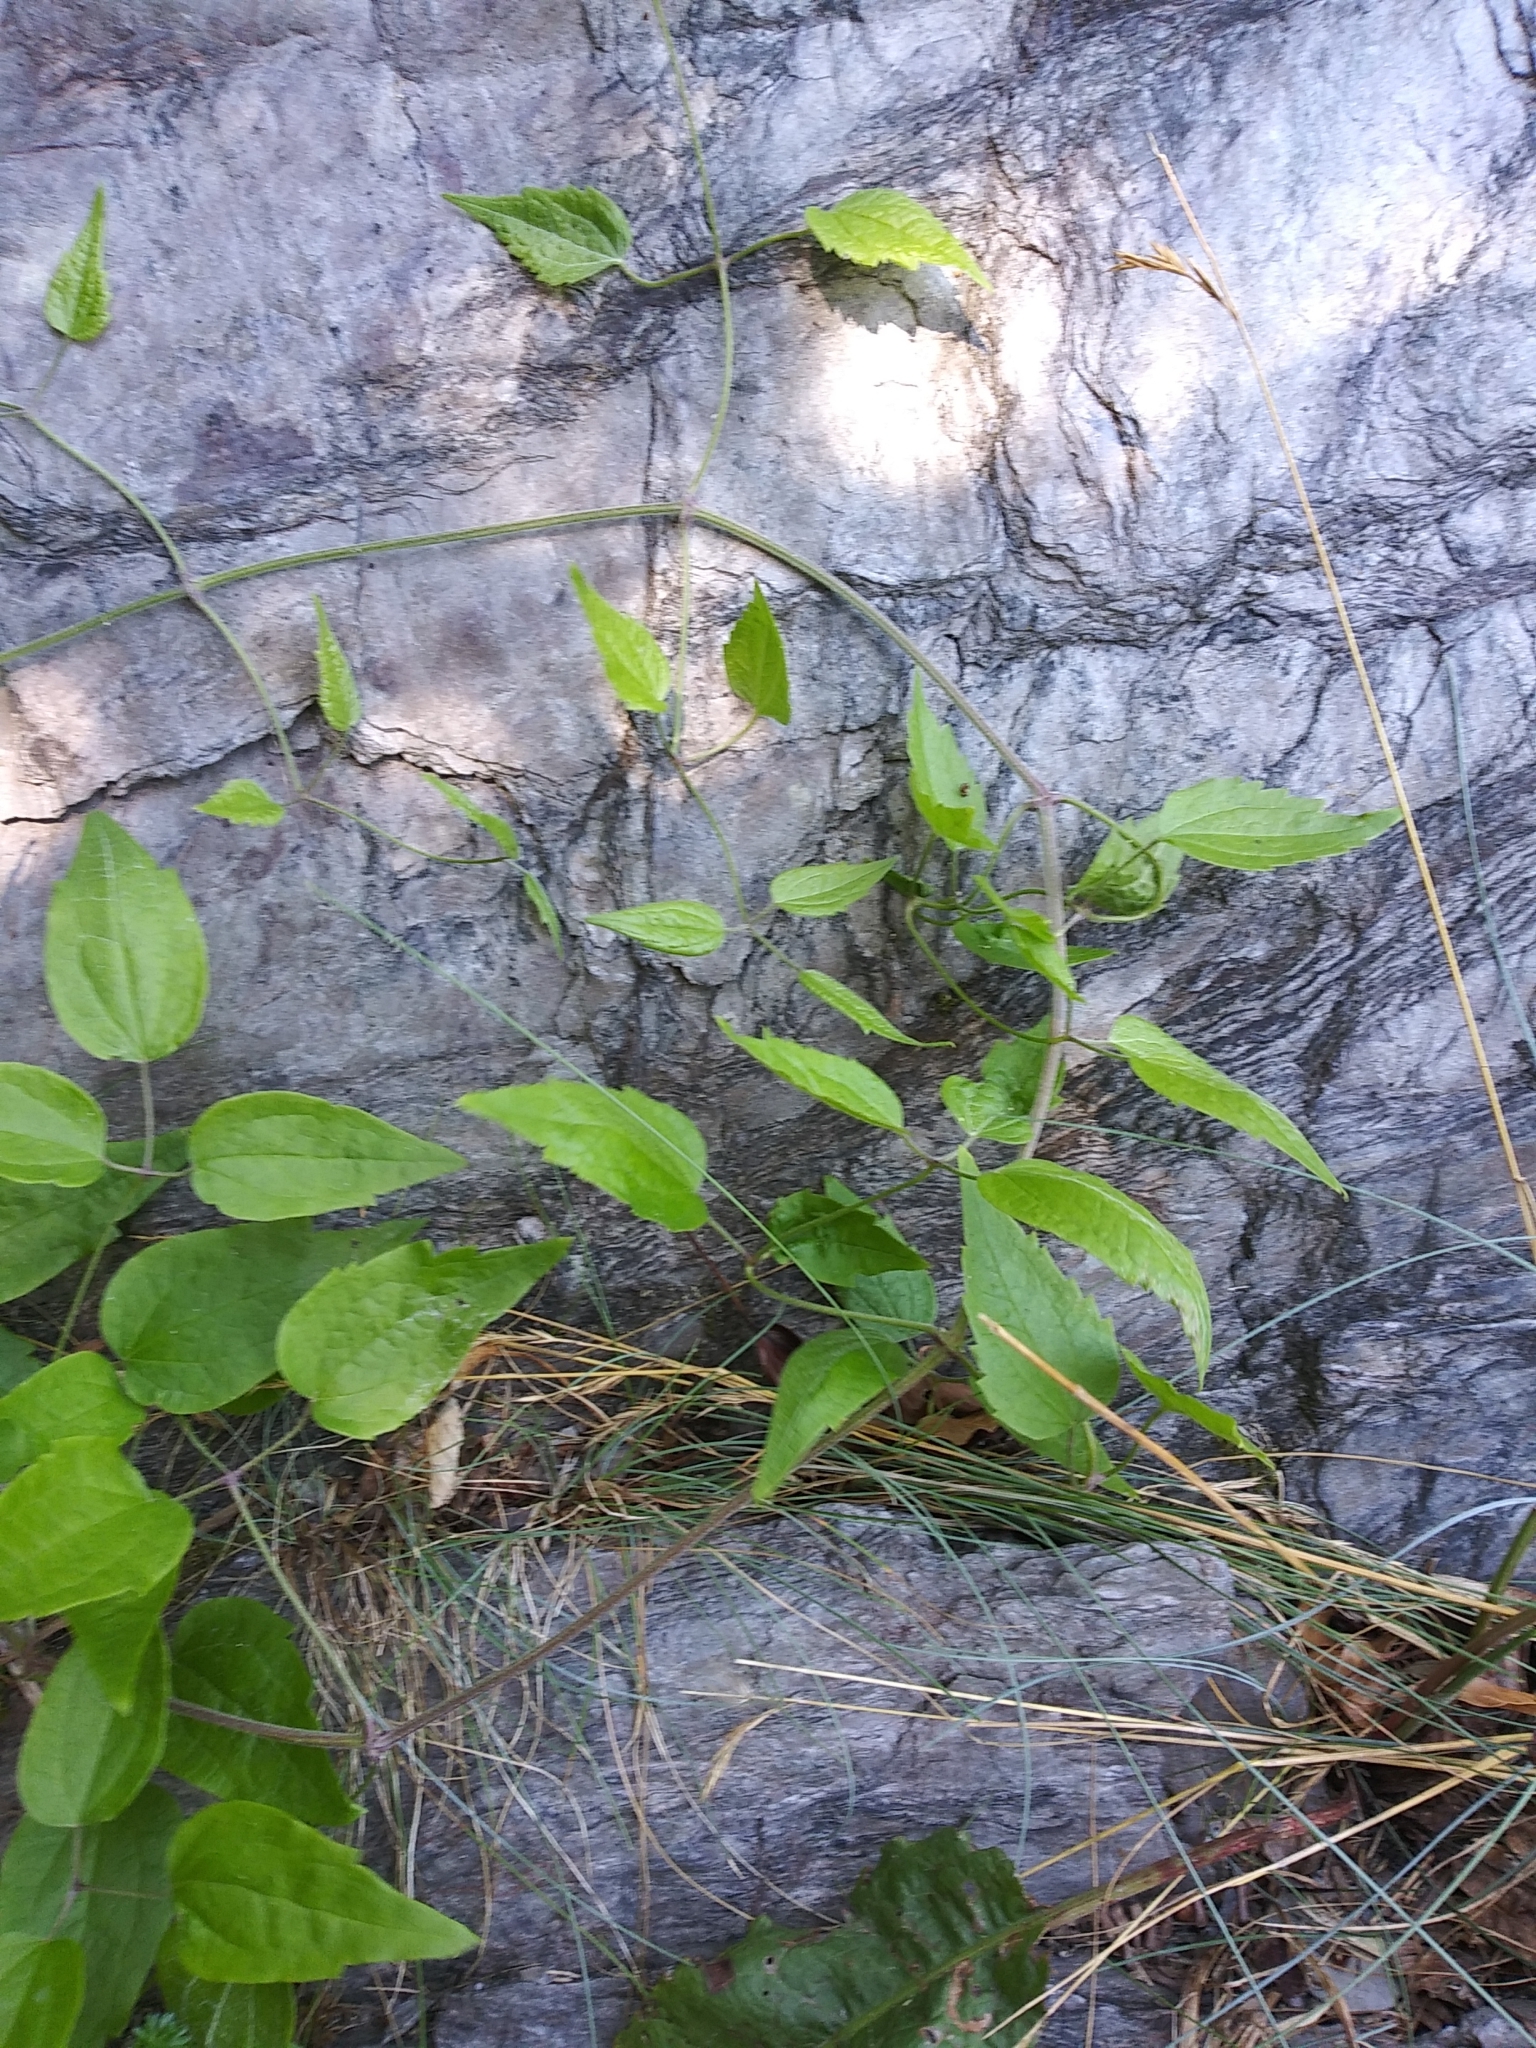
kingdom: Plantae
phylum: Tracheophyta
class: Magnoliopsida
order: Ranunculales
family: Ranunculaceae
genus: Clematis
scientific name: Clematis vitalba
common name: Evergreen clematis
